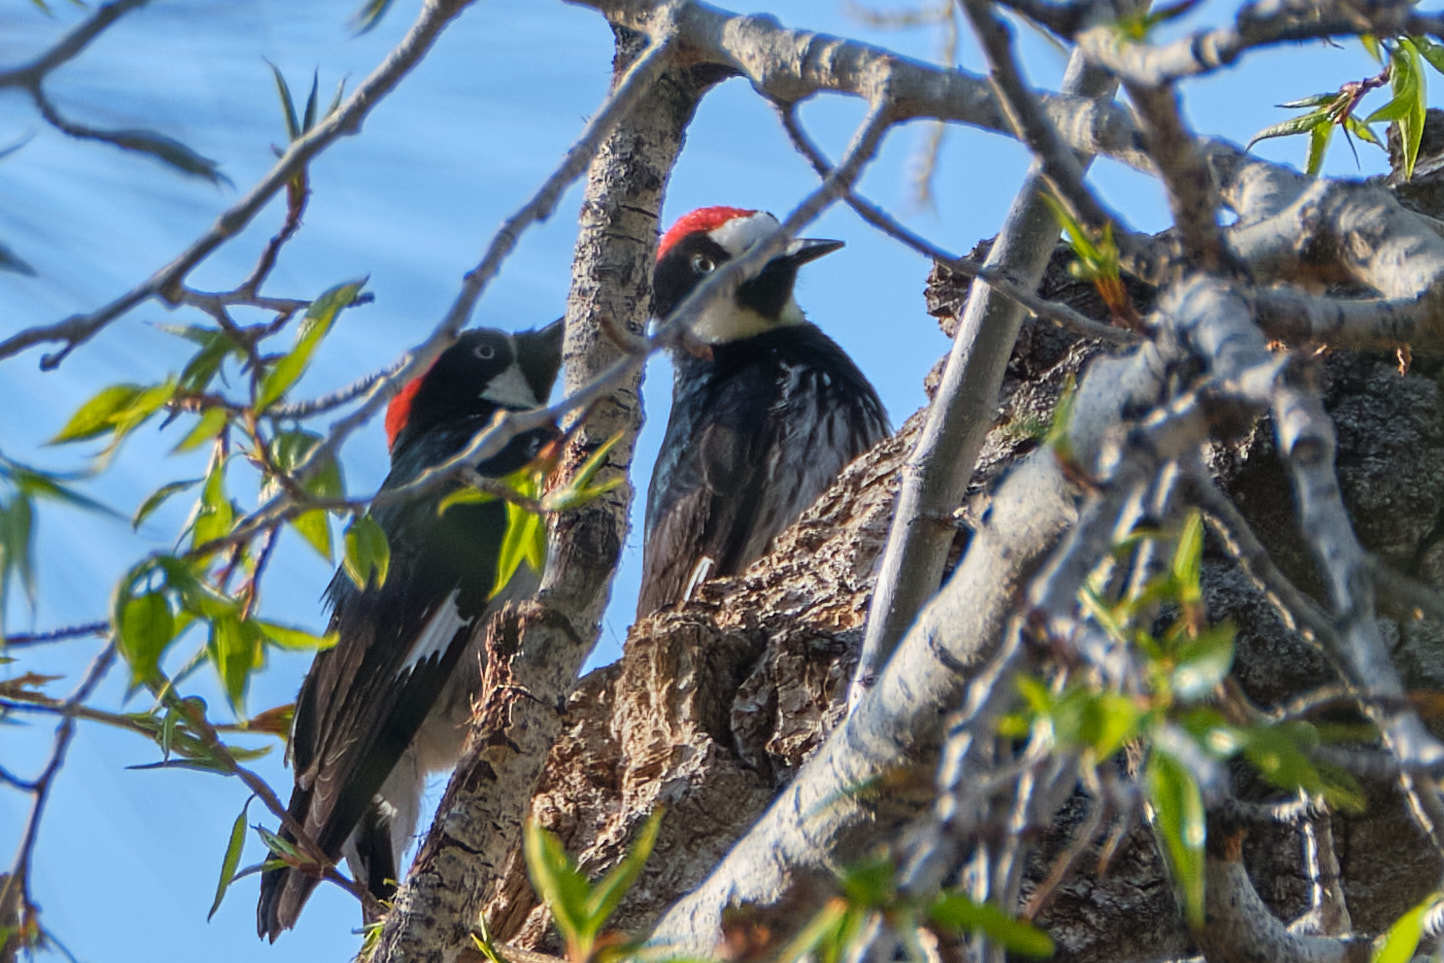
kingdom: Animalia
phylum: Chordata
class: Aves
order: Piciformes
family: Picidae
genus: Melanerpes
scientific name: Melanerpes formicivorus
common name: Acorn woodpecker
